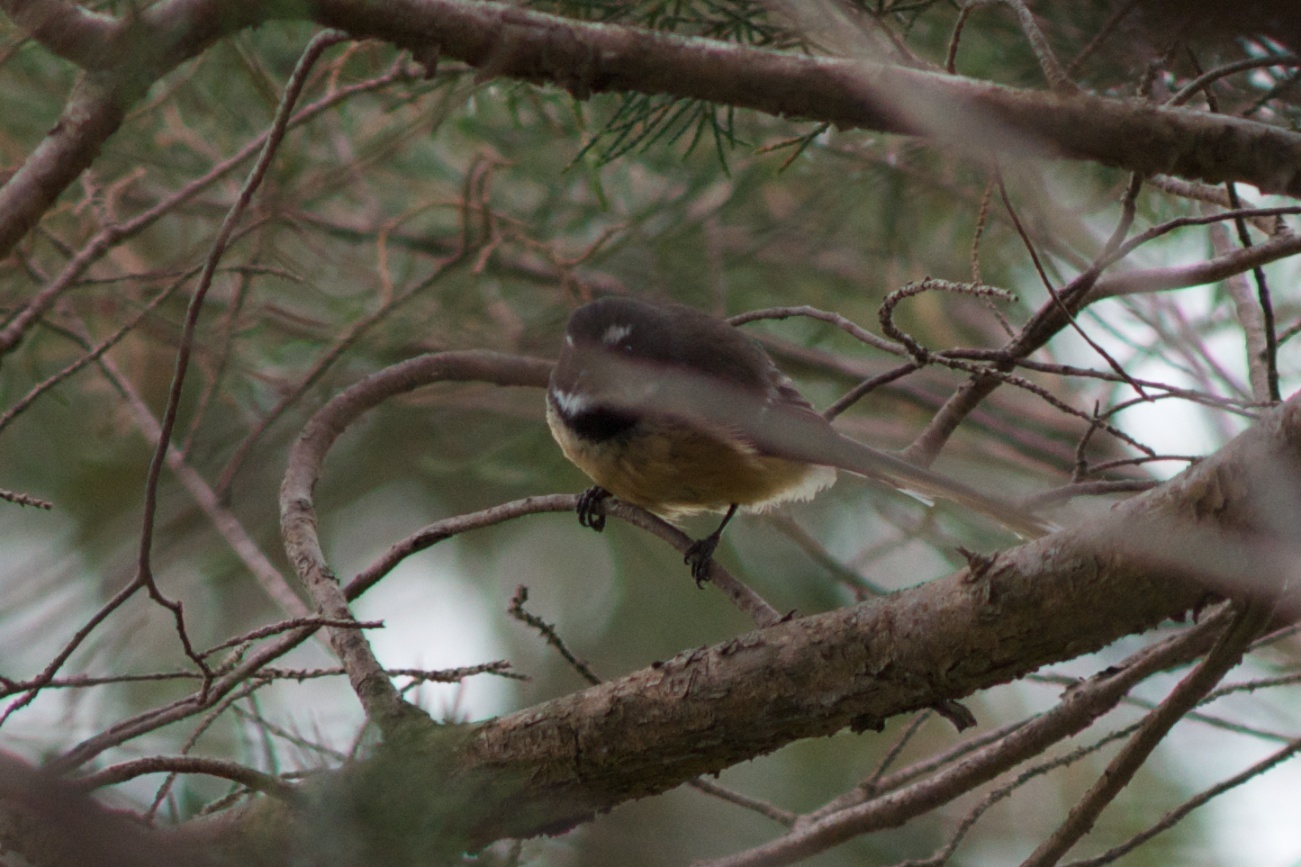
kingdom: Animalia
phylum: Chordata
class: Aves
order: Passeriformes
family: Rhipiduridae
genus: Rhipidura
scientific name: Rhipidura fuliginosa
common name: New zealand fantail
